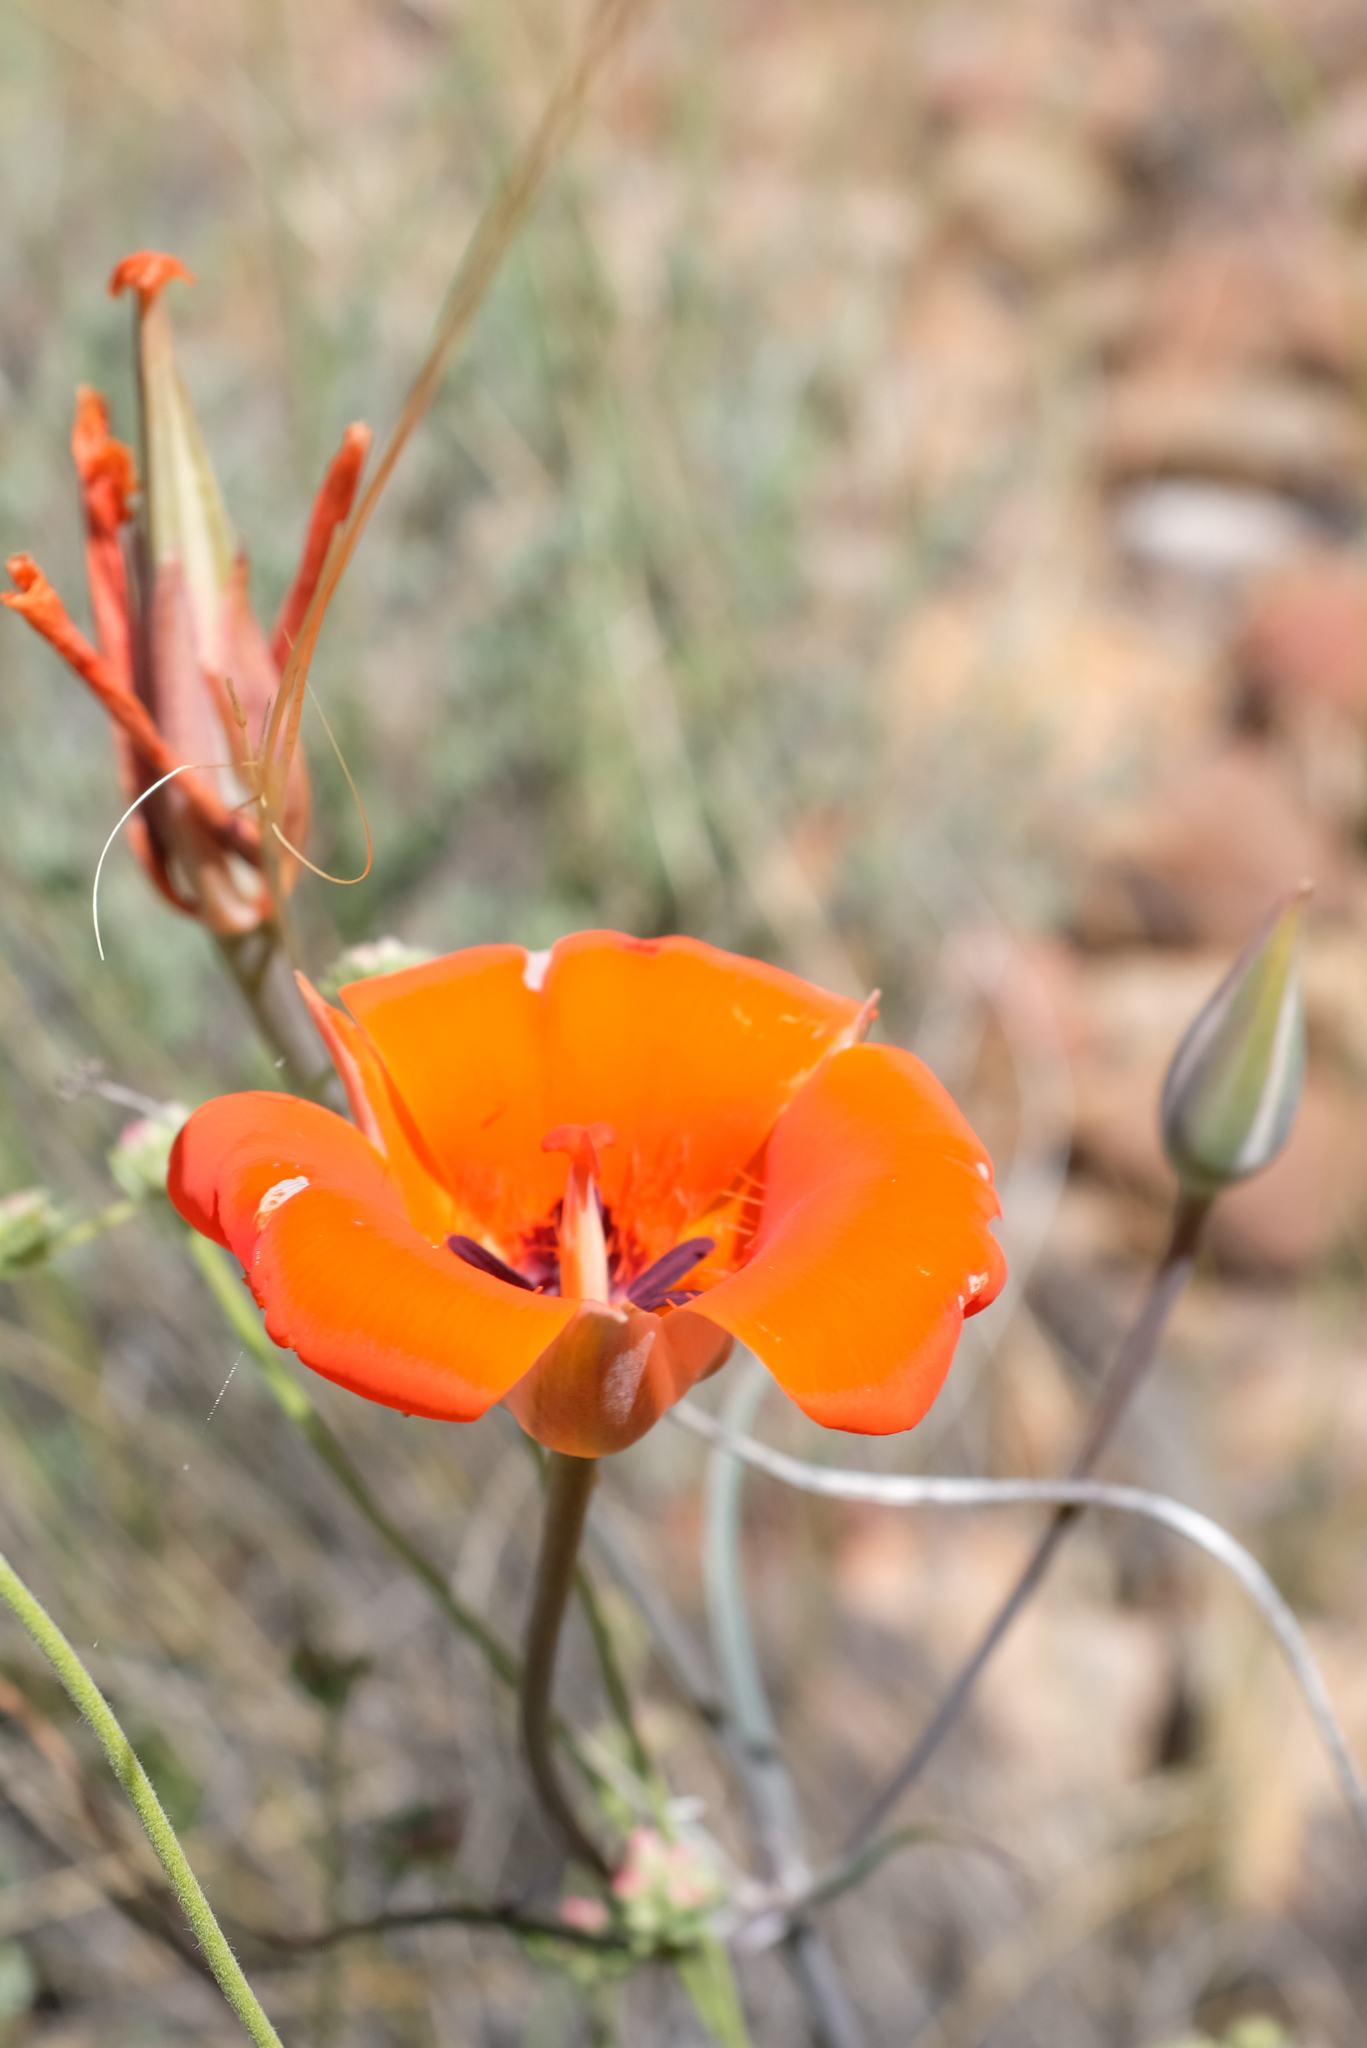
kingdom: Plantae
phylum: Tracheophyta
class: Liliopsida
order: Liliales
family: Liliaceae
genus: Calochortus
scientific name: Calochortus kennedyi
